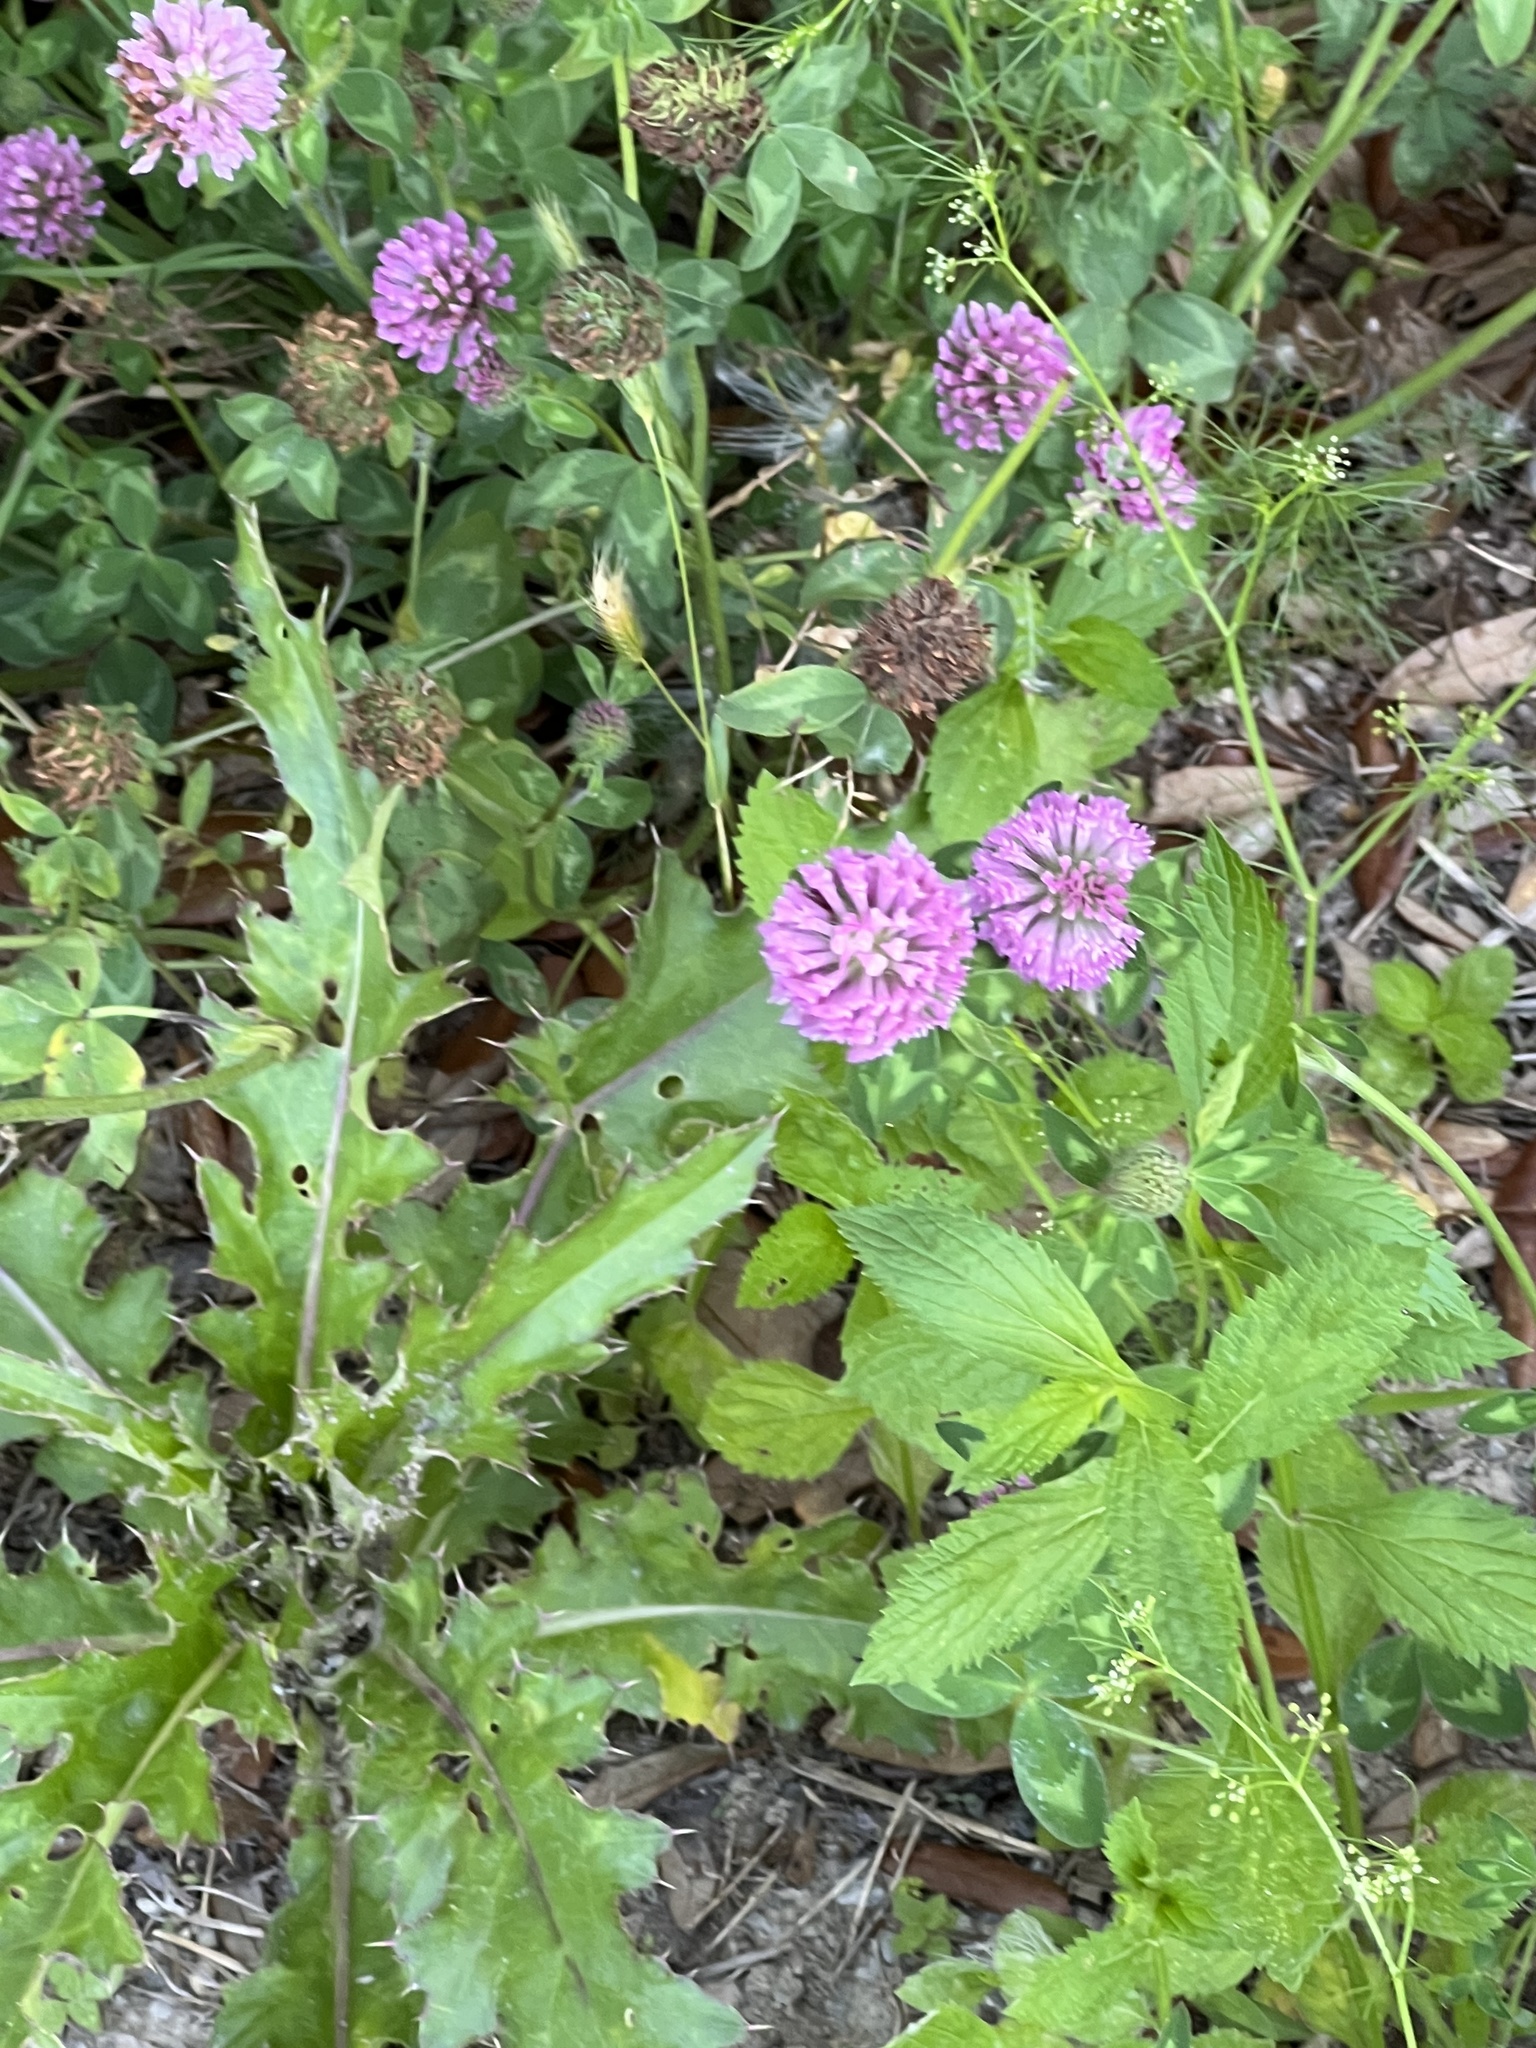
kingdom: Plantae
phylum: Tracheophyta
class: Magnoliopsida
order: Fabales
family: Fabaceae
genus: Trifolium
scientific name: Trifolium pratense
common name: Red clover
